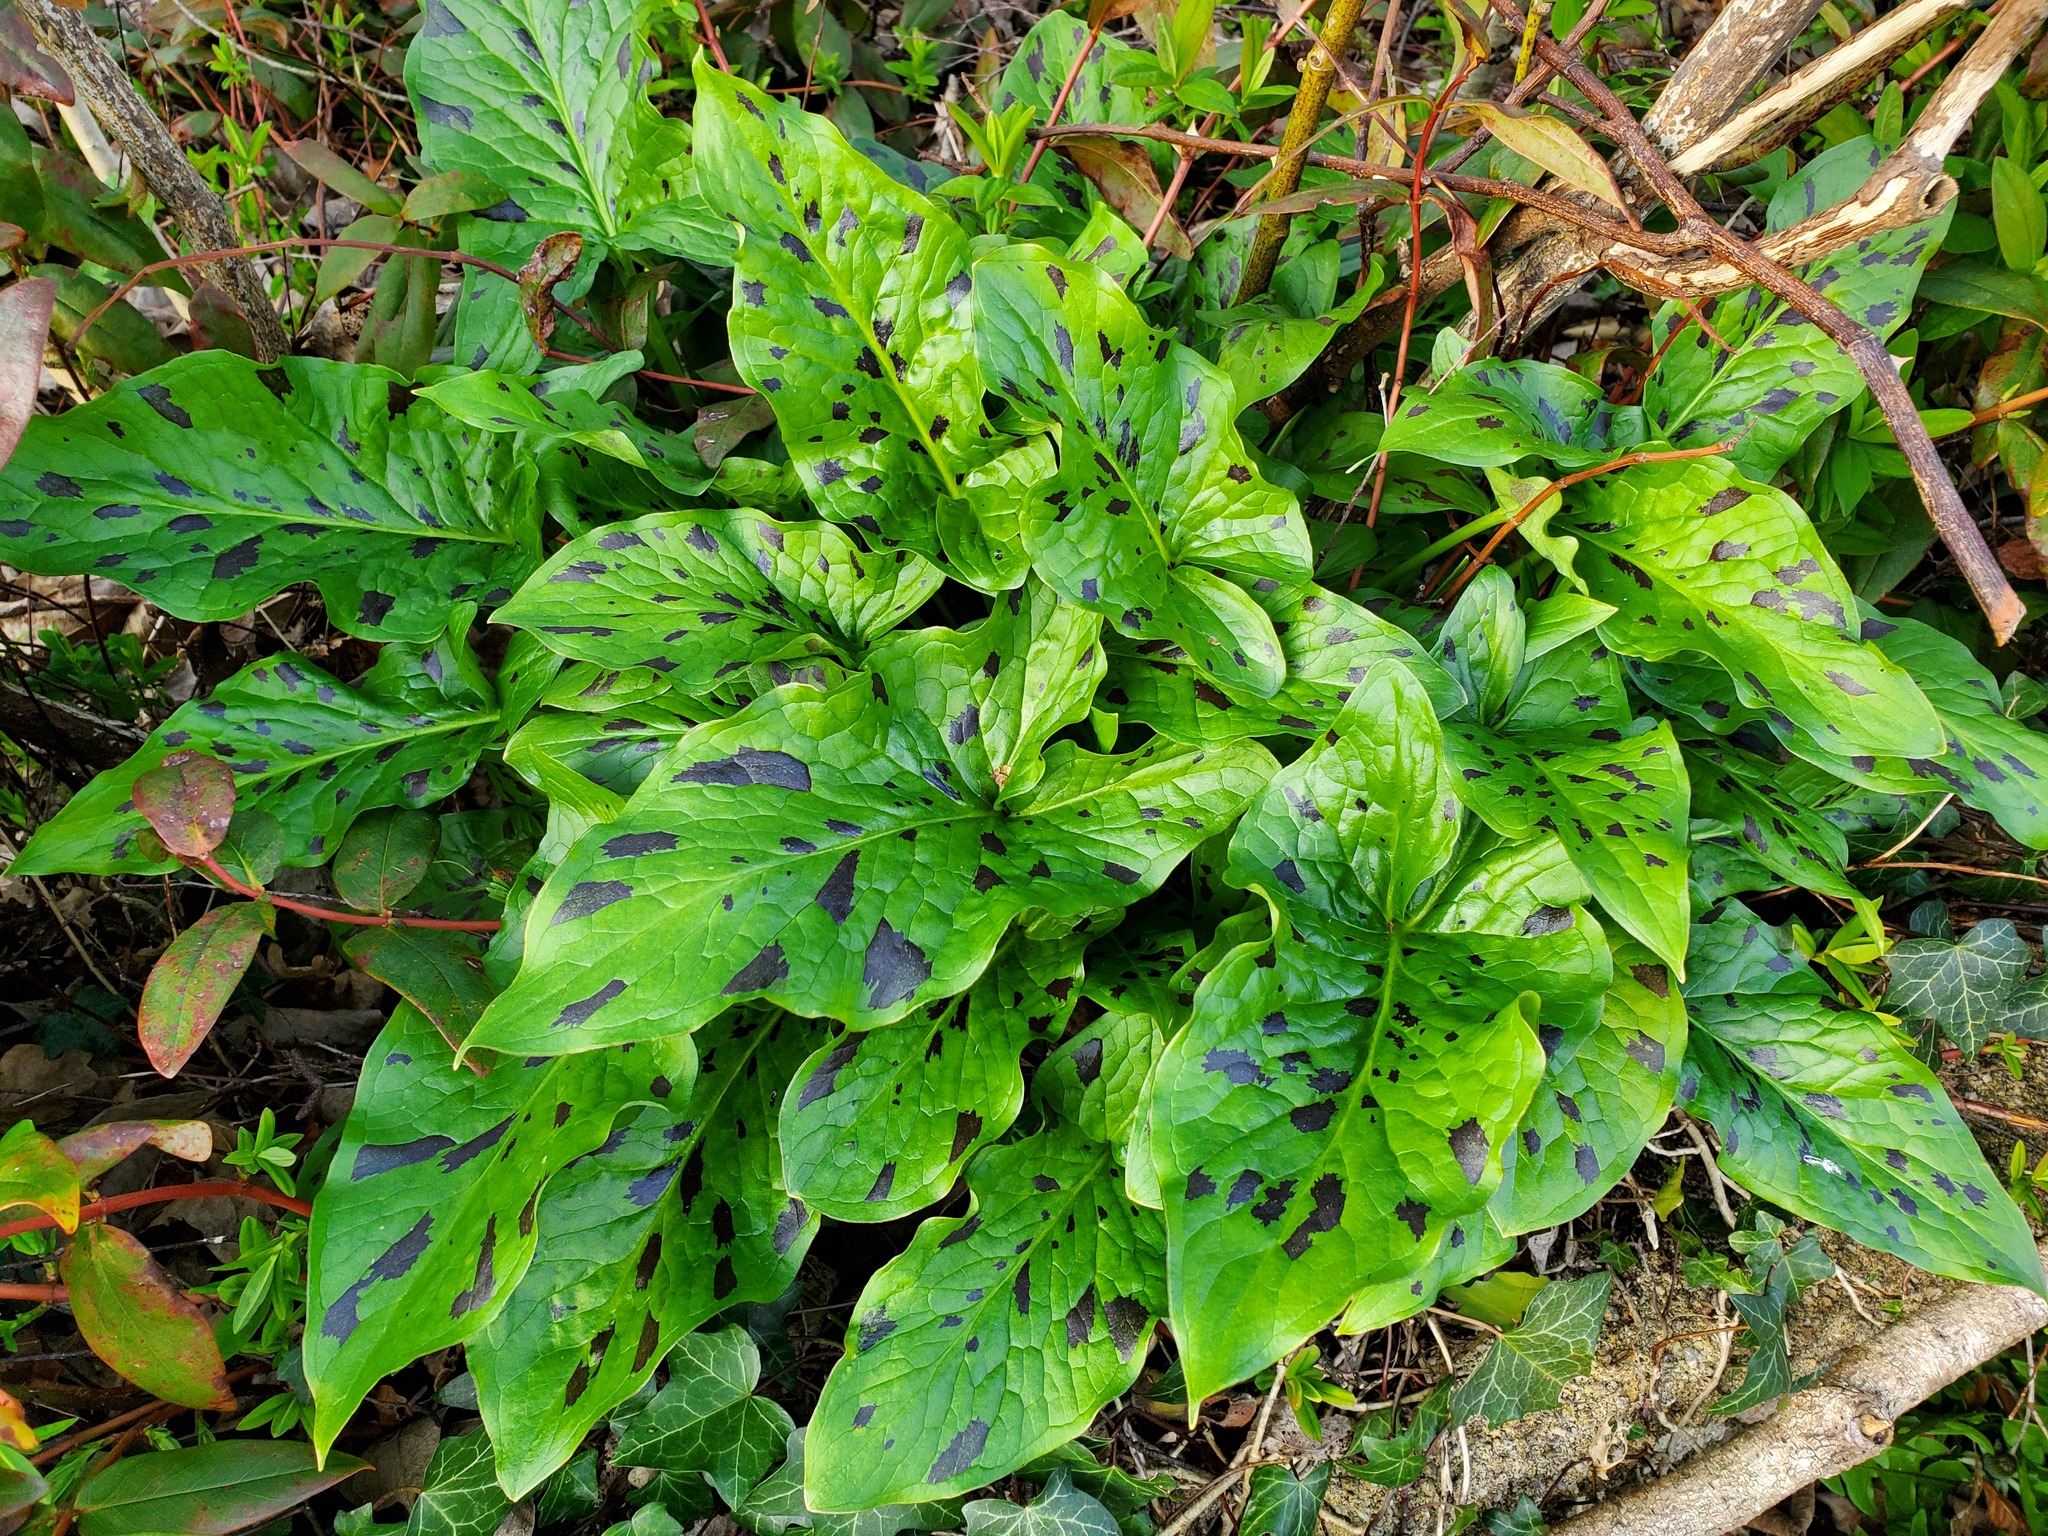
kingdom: Plantae
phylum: Tracheophyta
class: Liliopsida
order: Alismatales
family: Araceae
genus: Arum
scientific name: Arum maculatum
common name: Lords-and-ladies
